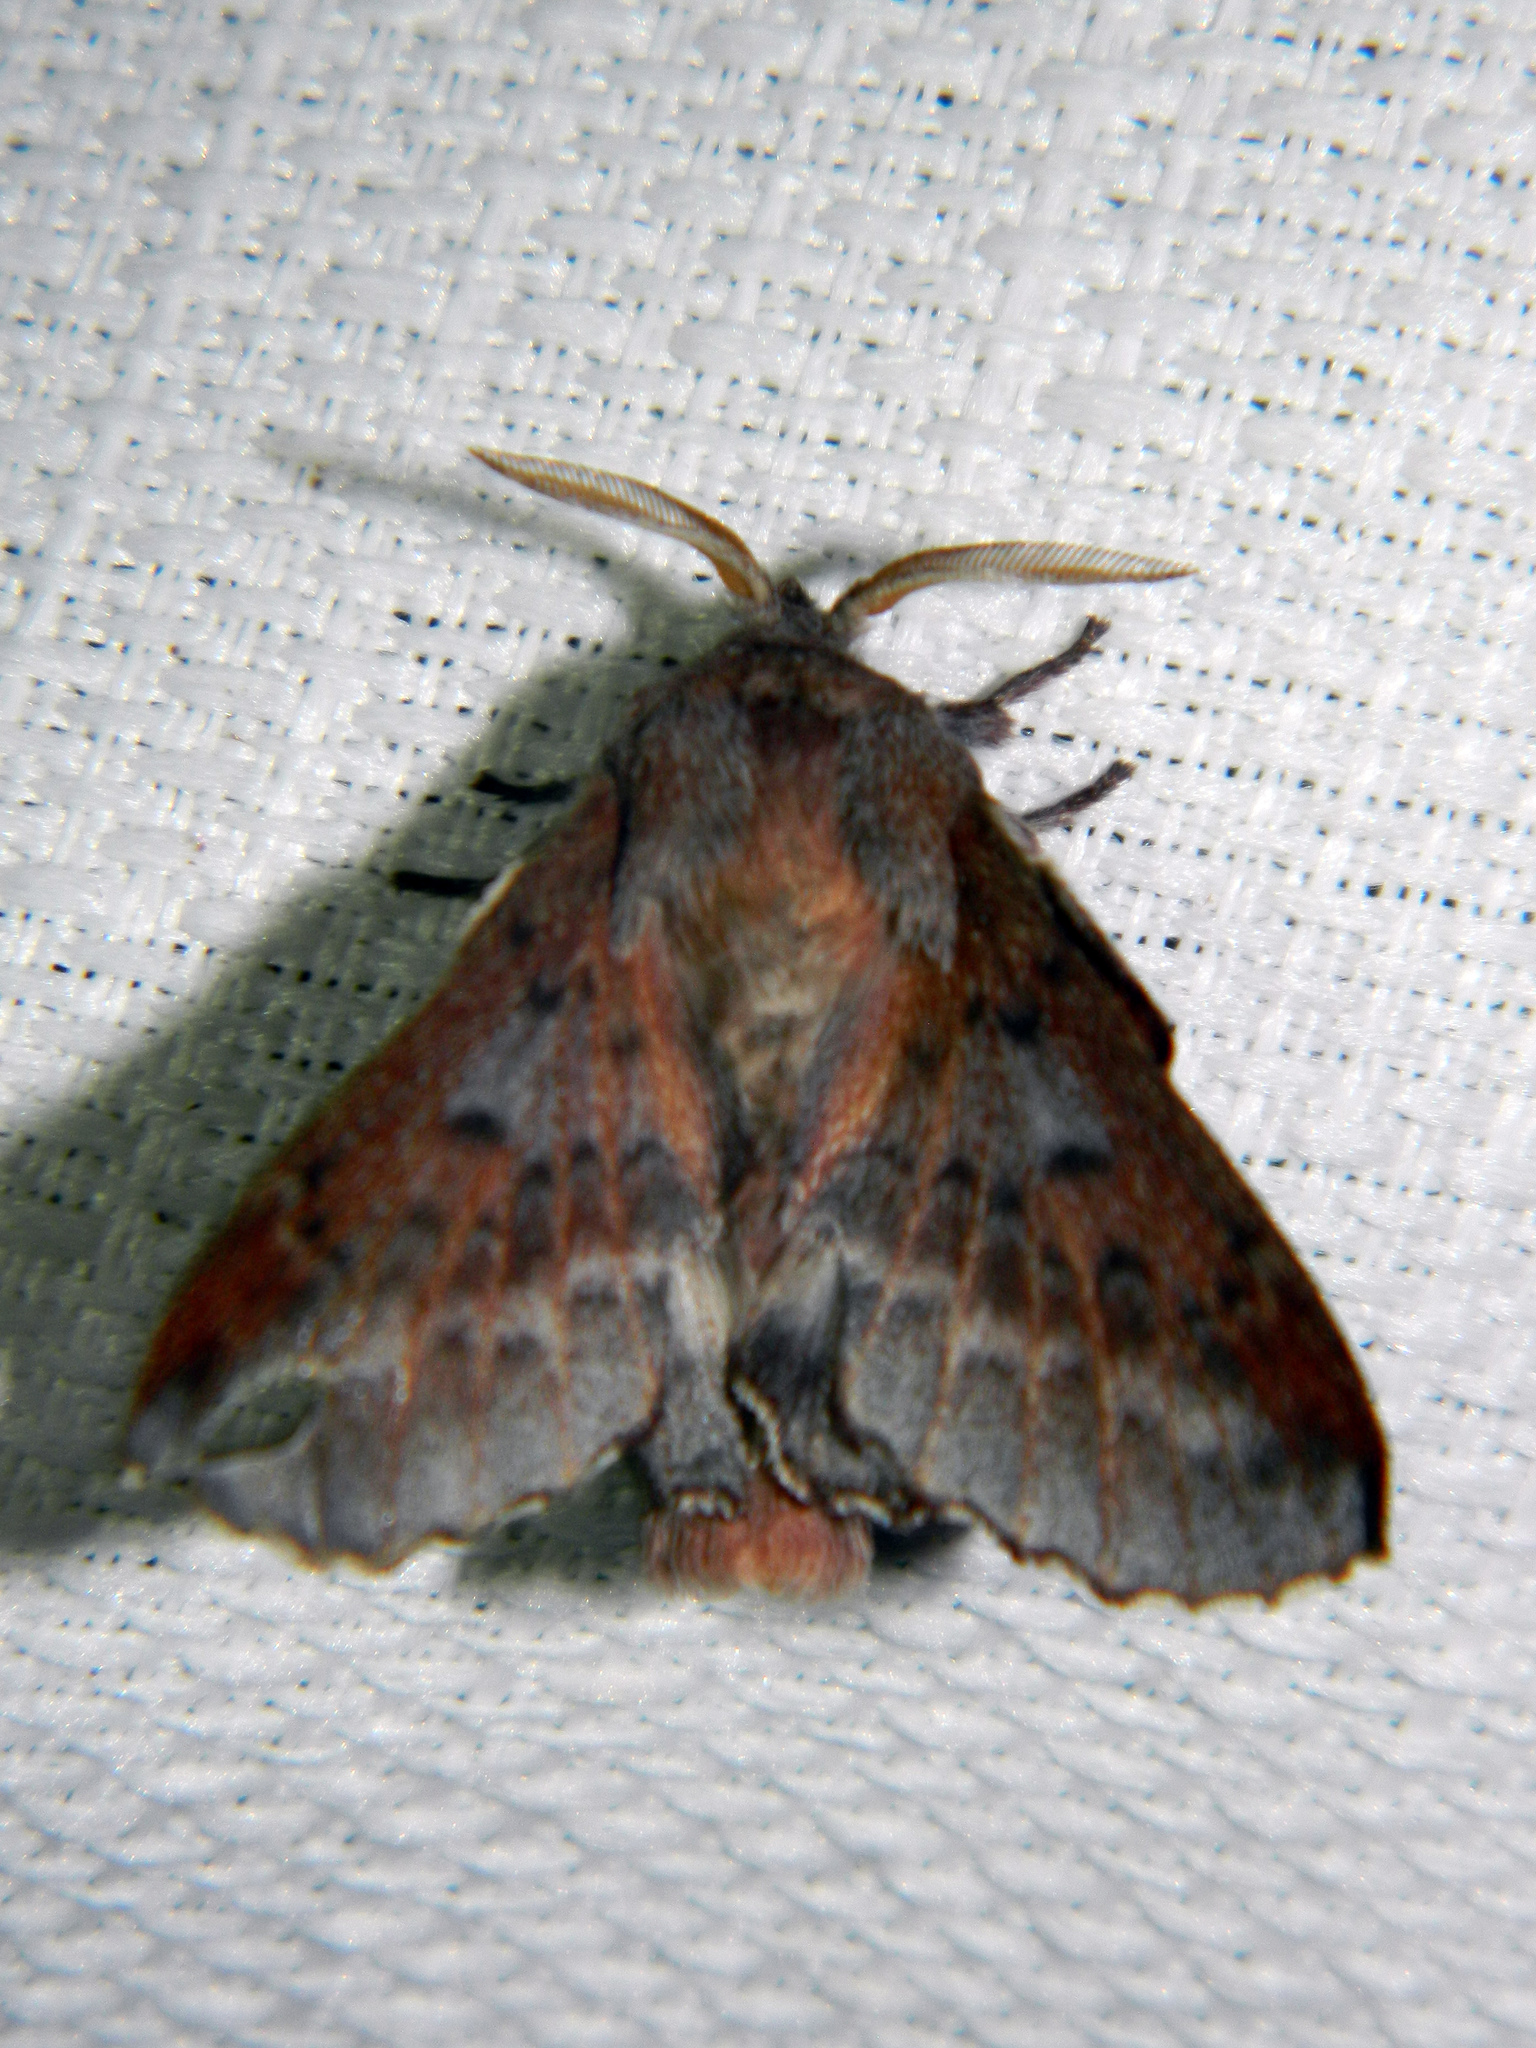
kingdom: Animalia
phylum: Arthropoda
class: Insecta
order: Lepidoptera
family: Lasiocampidae
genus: Phyllodesma
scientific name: Phyllodesma americana
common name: American lappet moth
